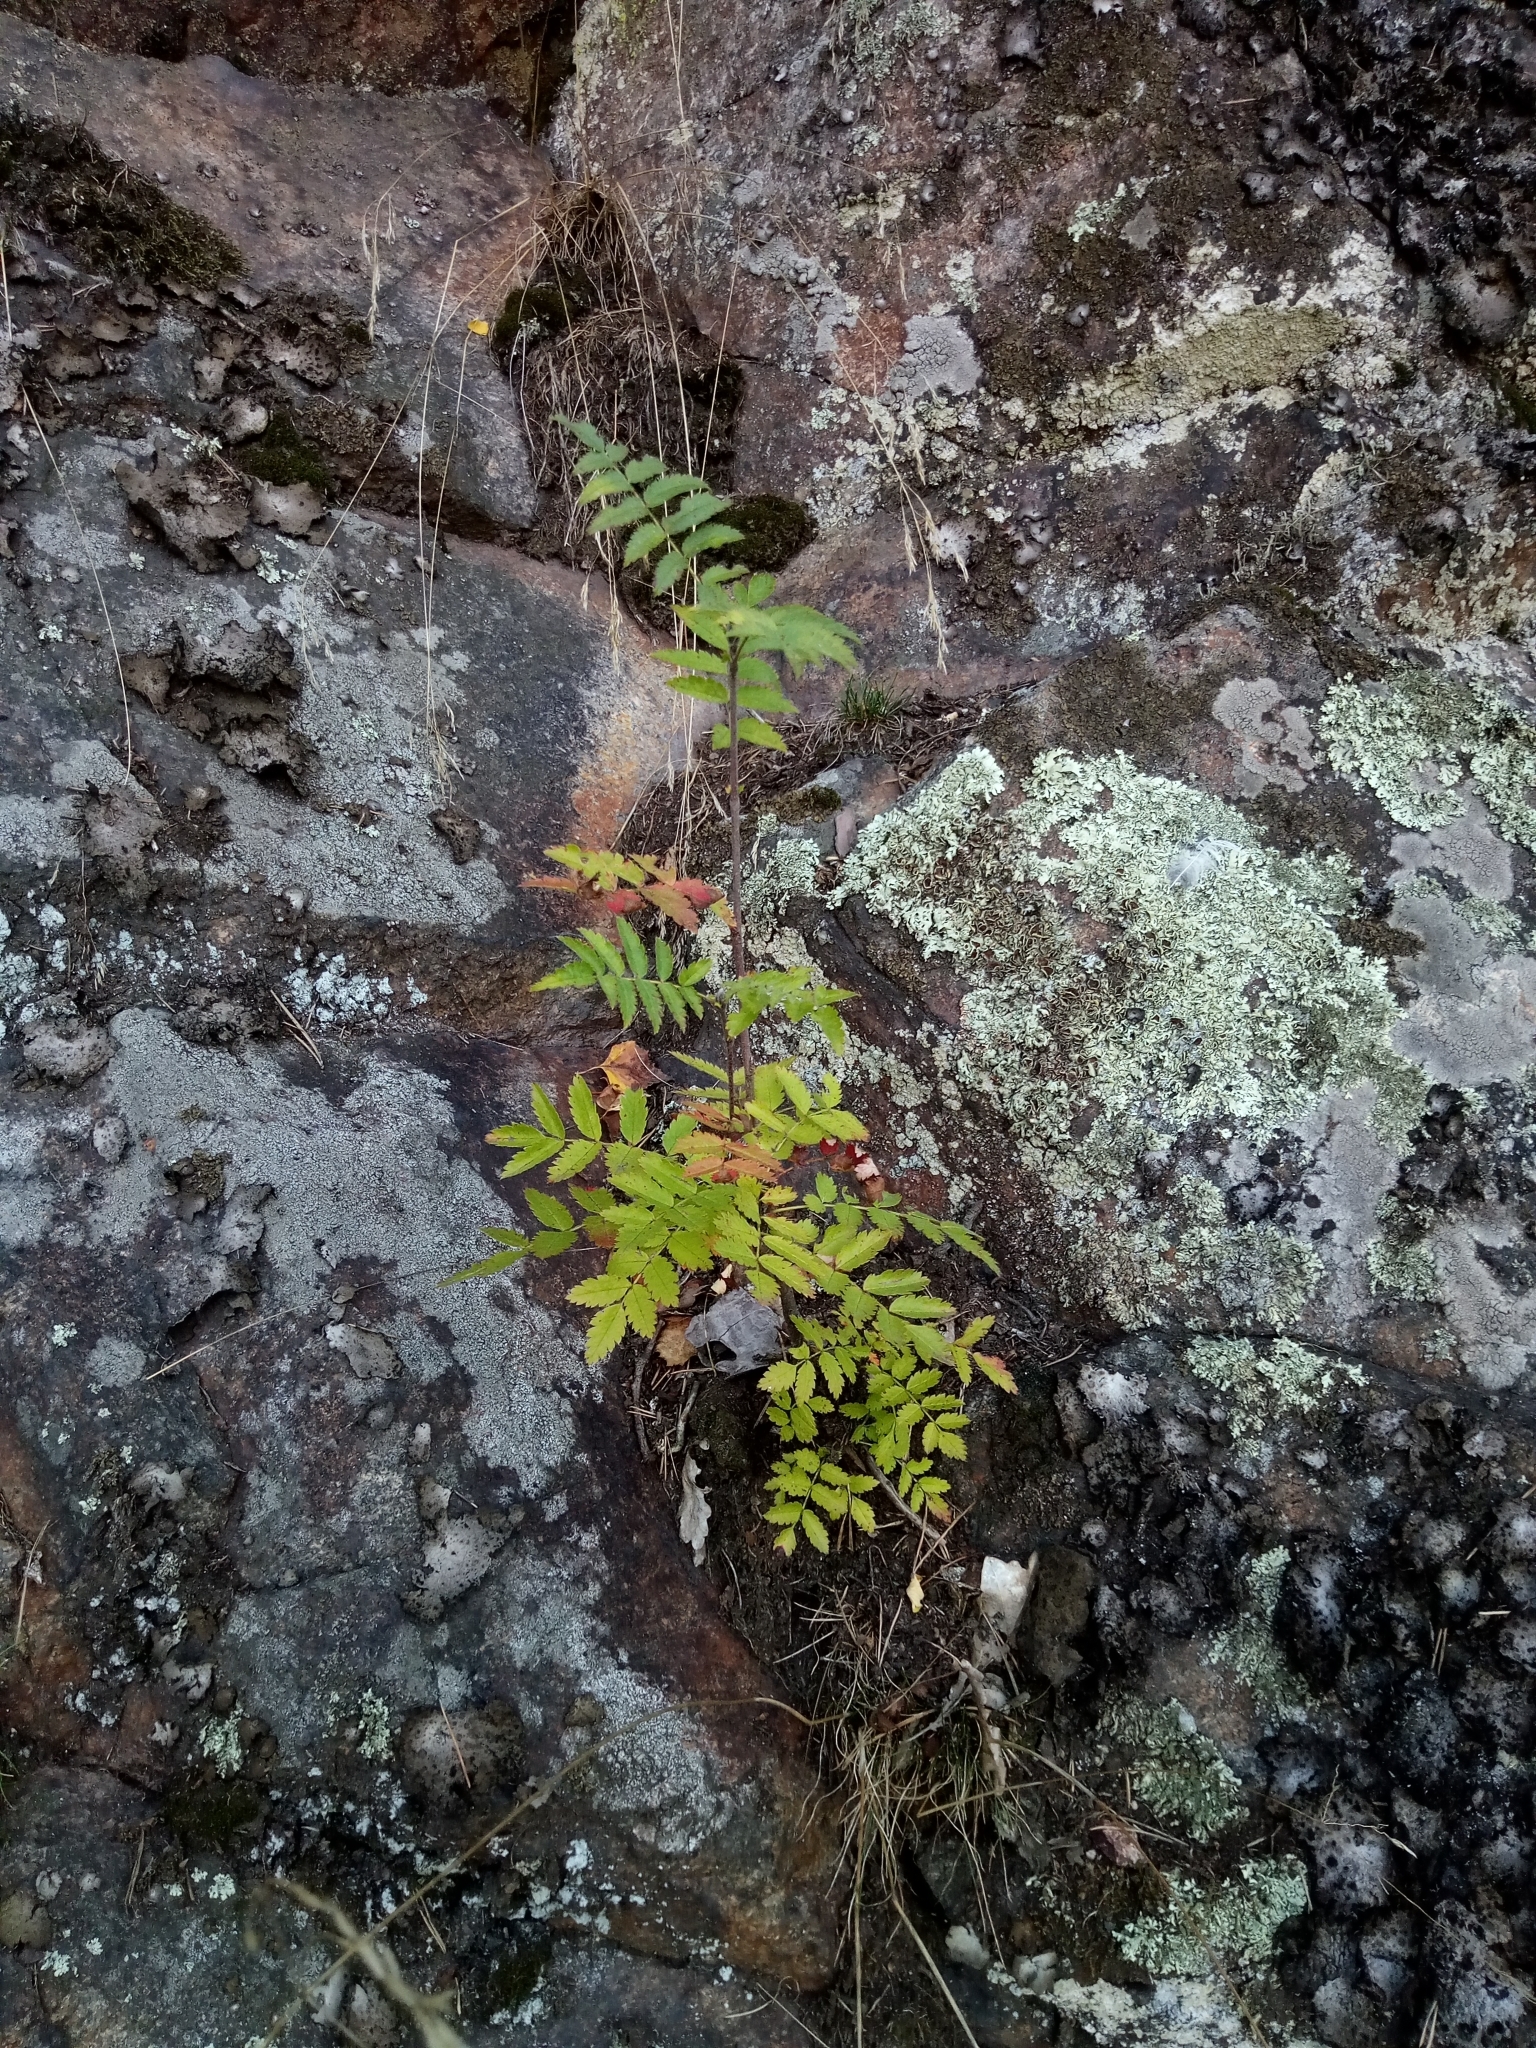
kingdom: Plantae
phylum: Tracheophyta
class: Magnoliopsida
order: Rosales
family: Rosaceae
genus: Sorbus
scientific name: Sorbus aucuparia
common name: Rowan
